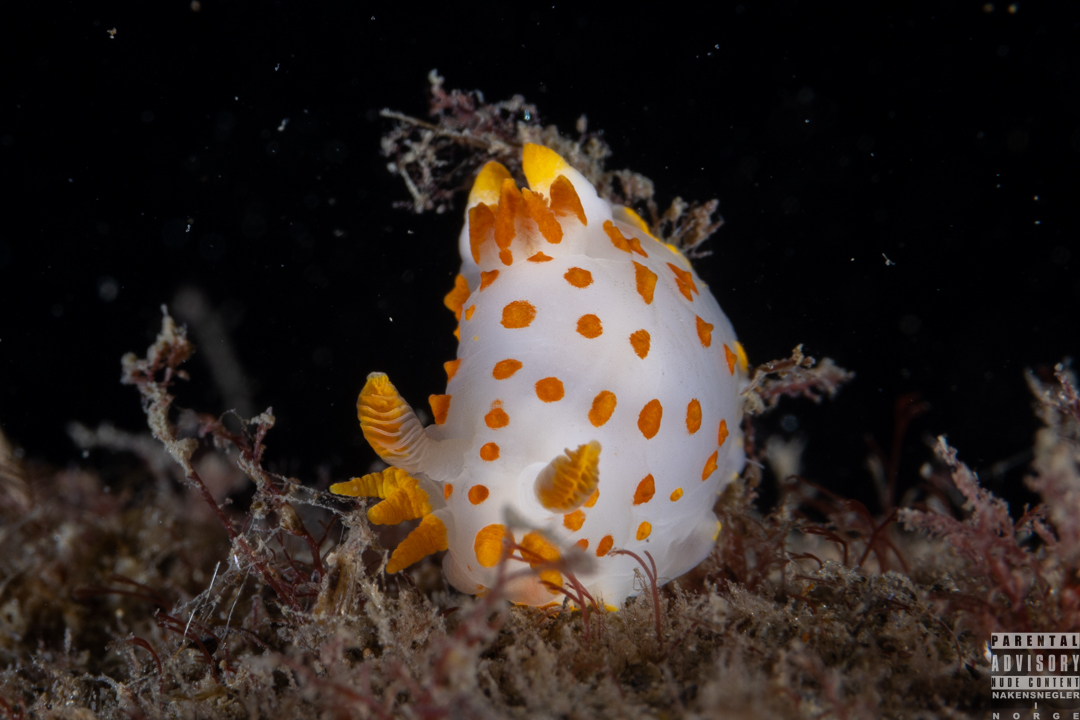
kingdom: Animalia
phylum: Mollusca
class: Gastropoda
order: Nudibranchia
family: Polyceridae
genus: Polycera
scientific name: Polycera quadrilineata
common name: Four-striped polycera
